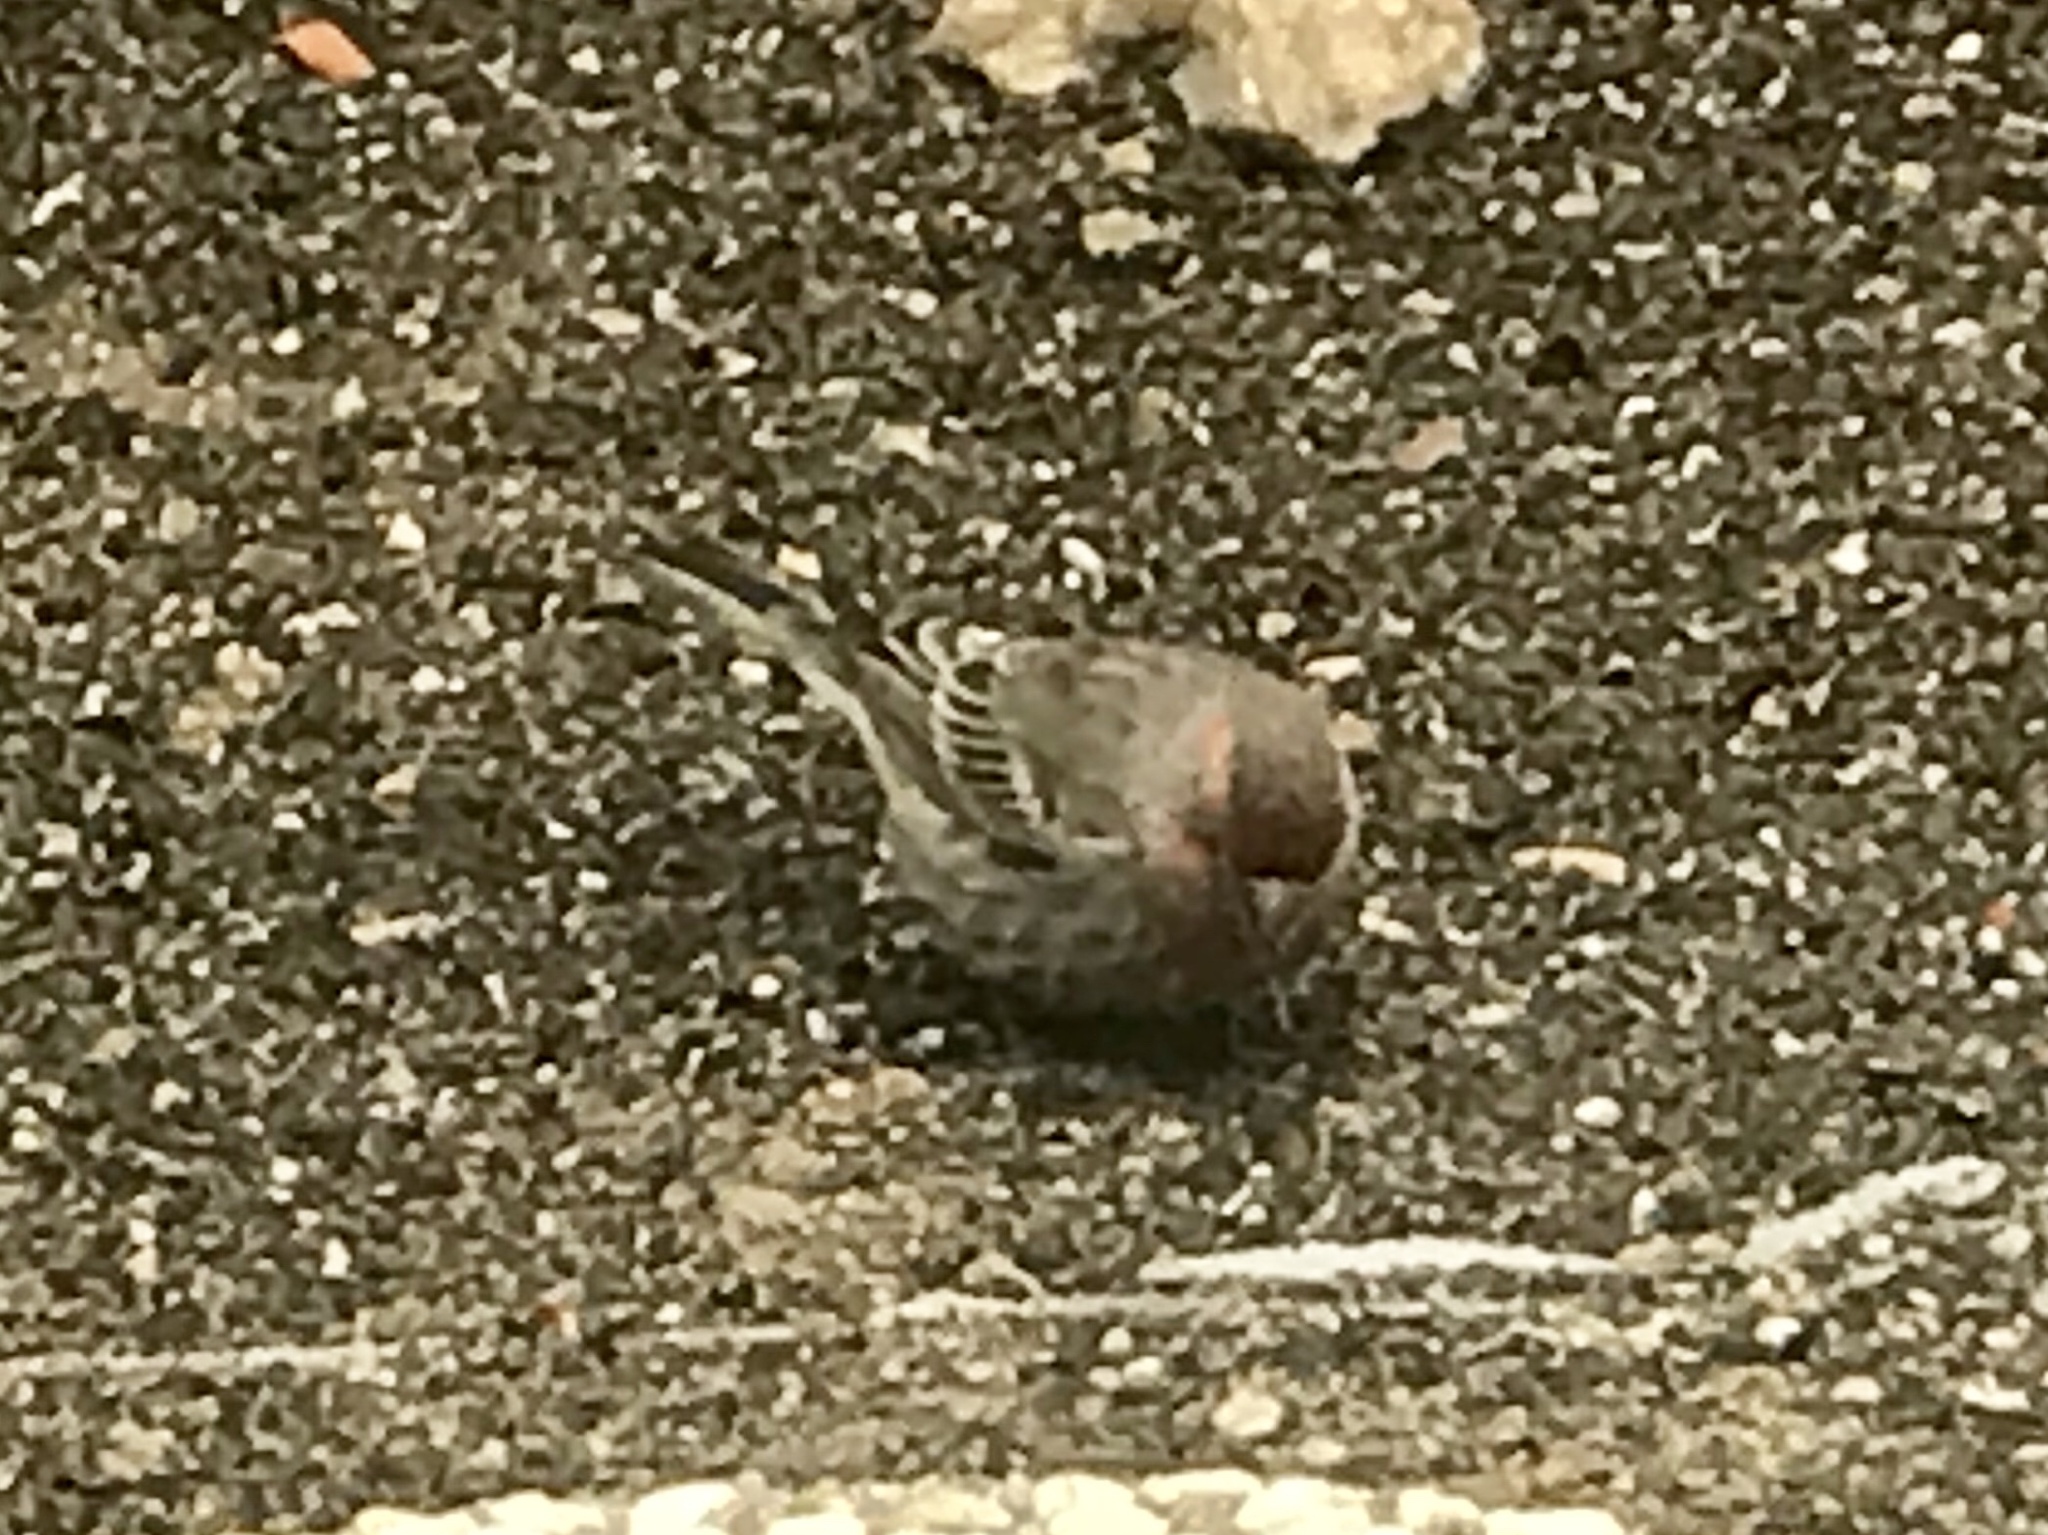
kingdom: Animalia
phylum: Chordata
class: Aves
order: Passeriformes
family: Fringillidae
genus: Haemorhous
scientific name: Haemorhous mexicanus
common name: House finch
